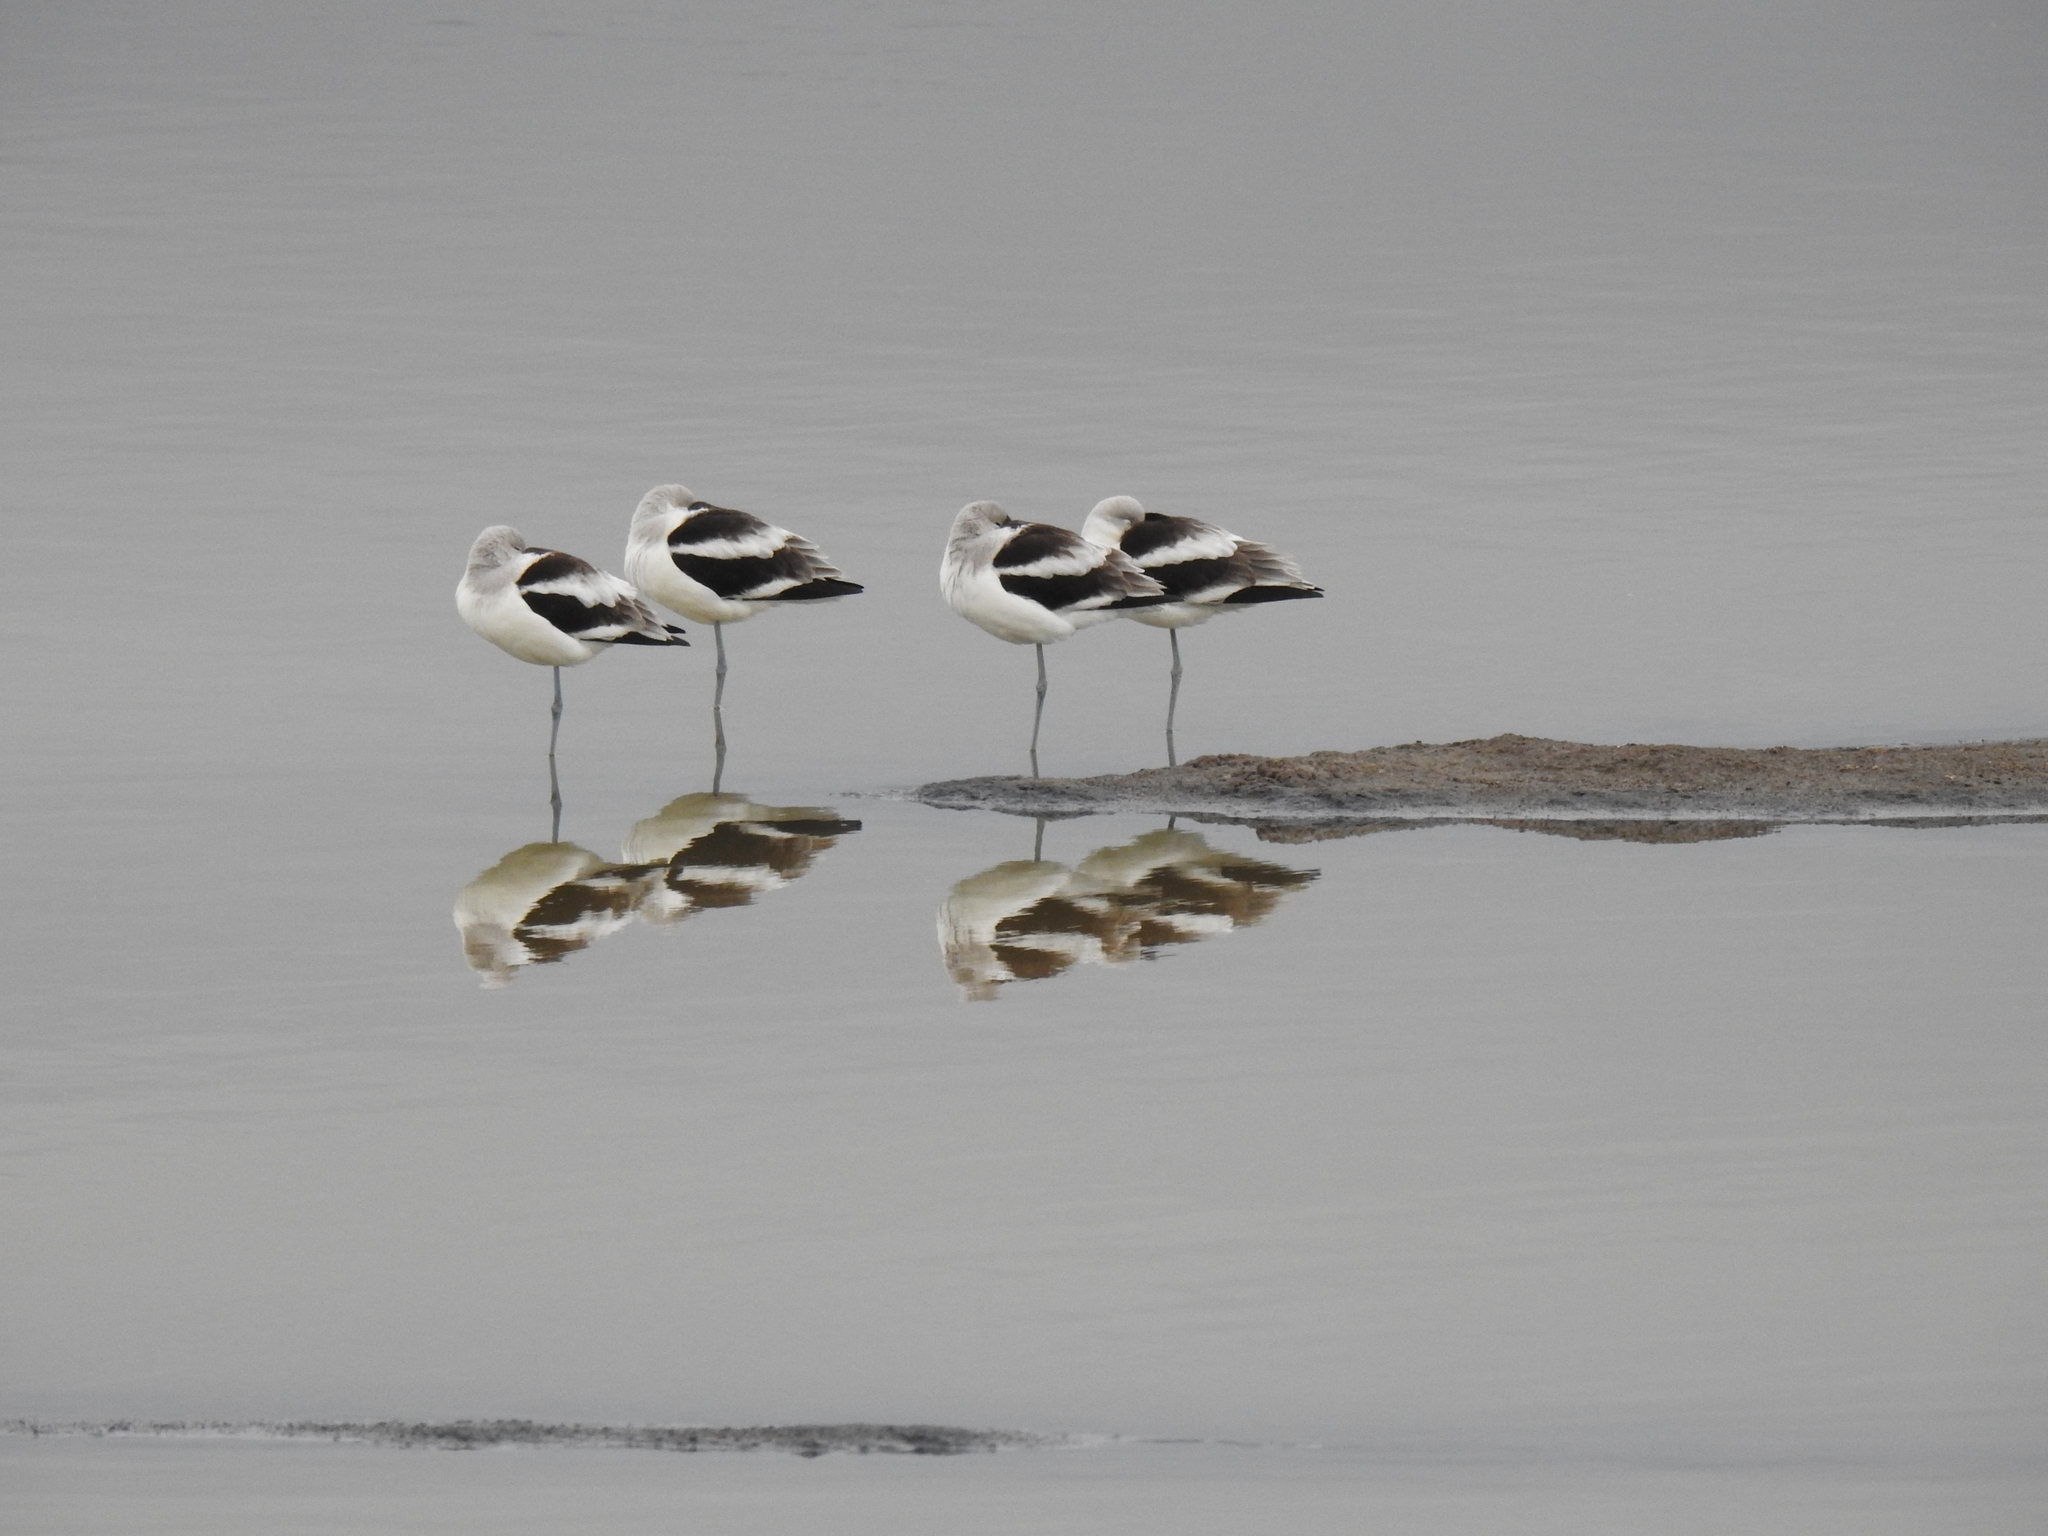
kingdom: Animalia
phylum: Chordata
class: Aves
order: Charadriiformes
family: Recurvirostridae
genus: Recurvirostra
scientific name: Recurvirostra americana
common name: American avocet
